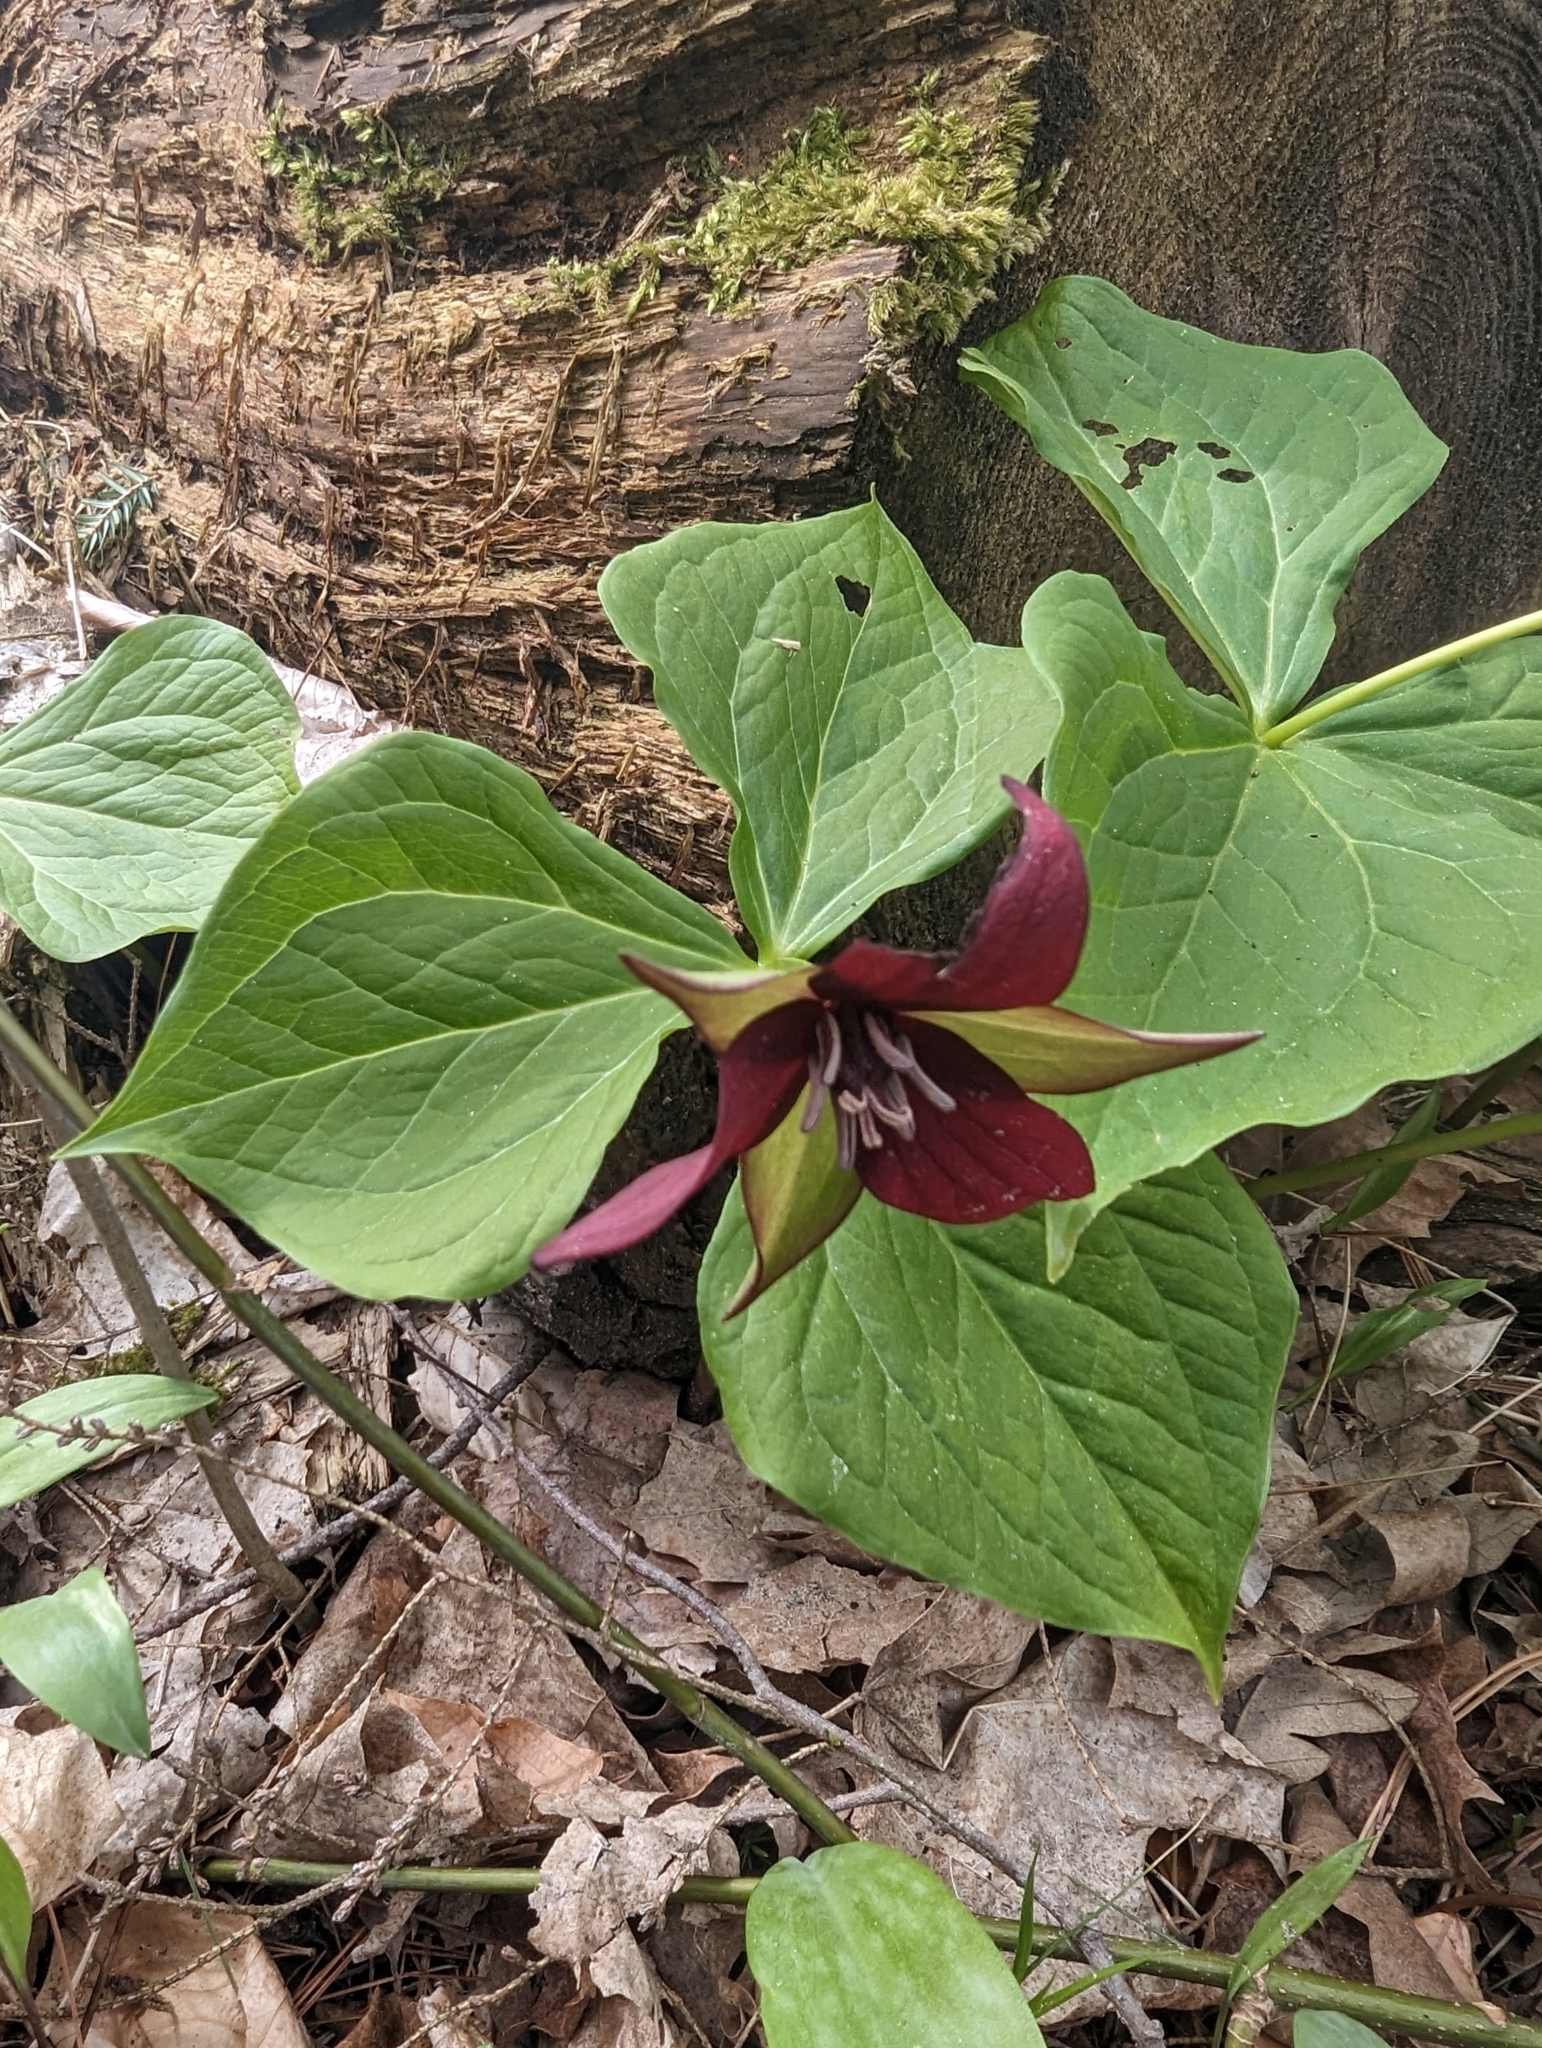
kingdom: Plantae
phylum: Tracheophyta
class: Liliopsida
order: Liliales
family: Melanthiaceae
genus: Trillium
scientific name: Trillium erectum
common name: Purple trillium
